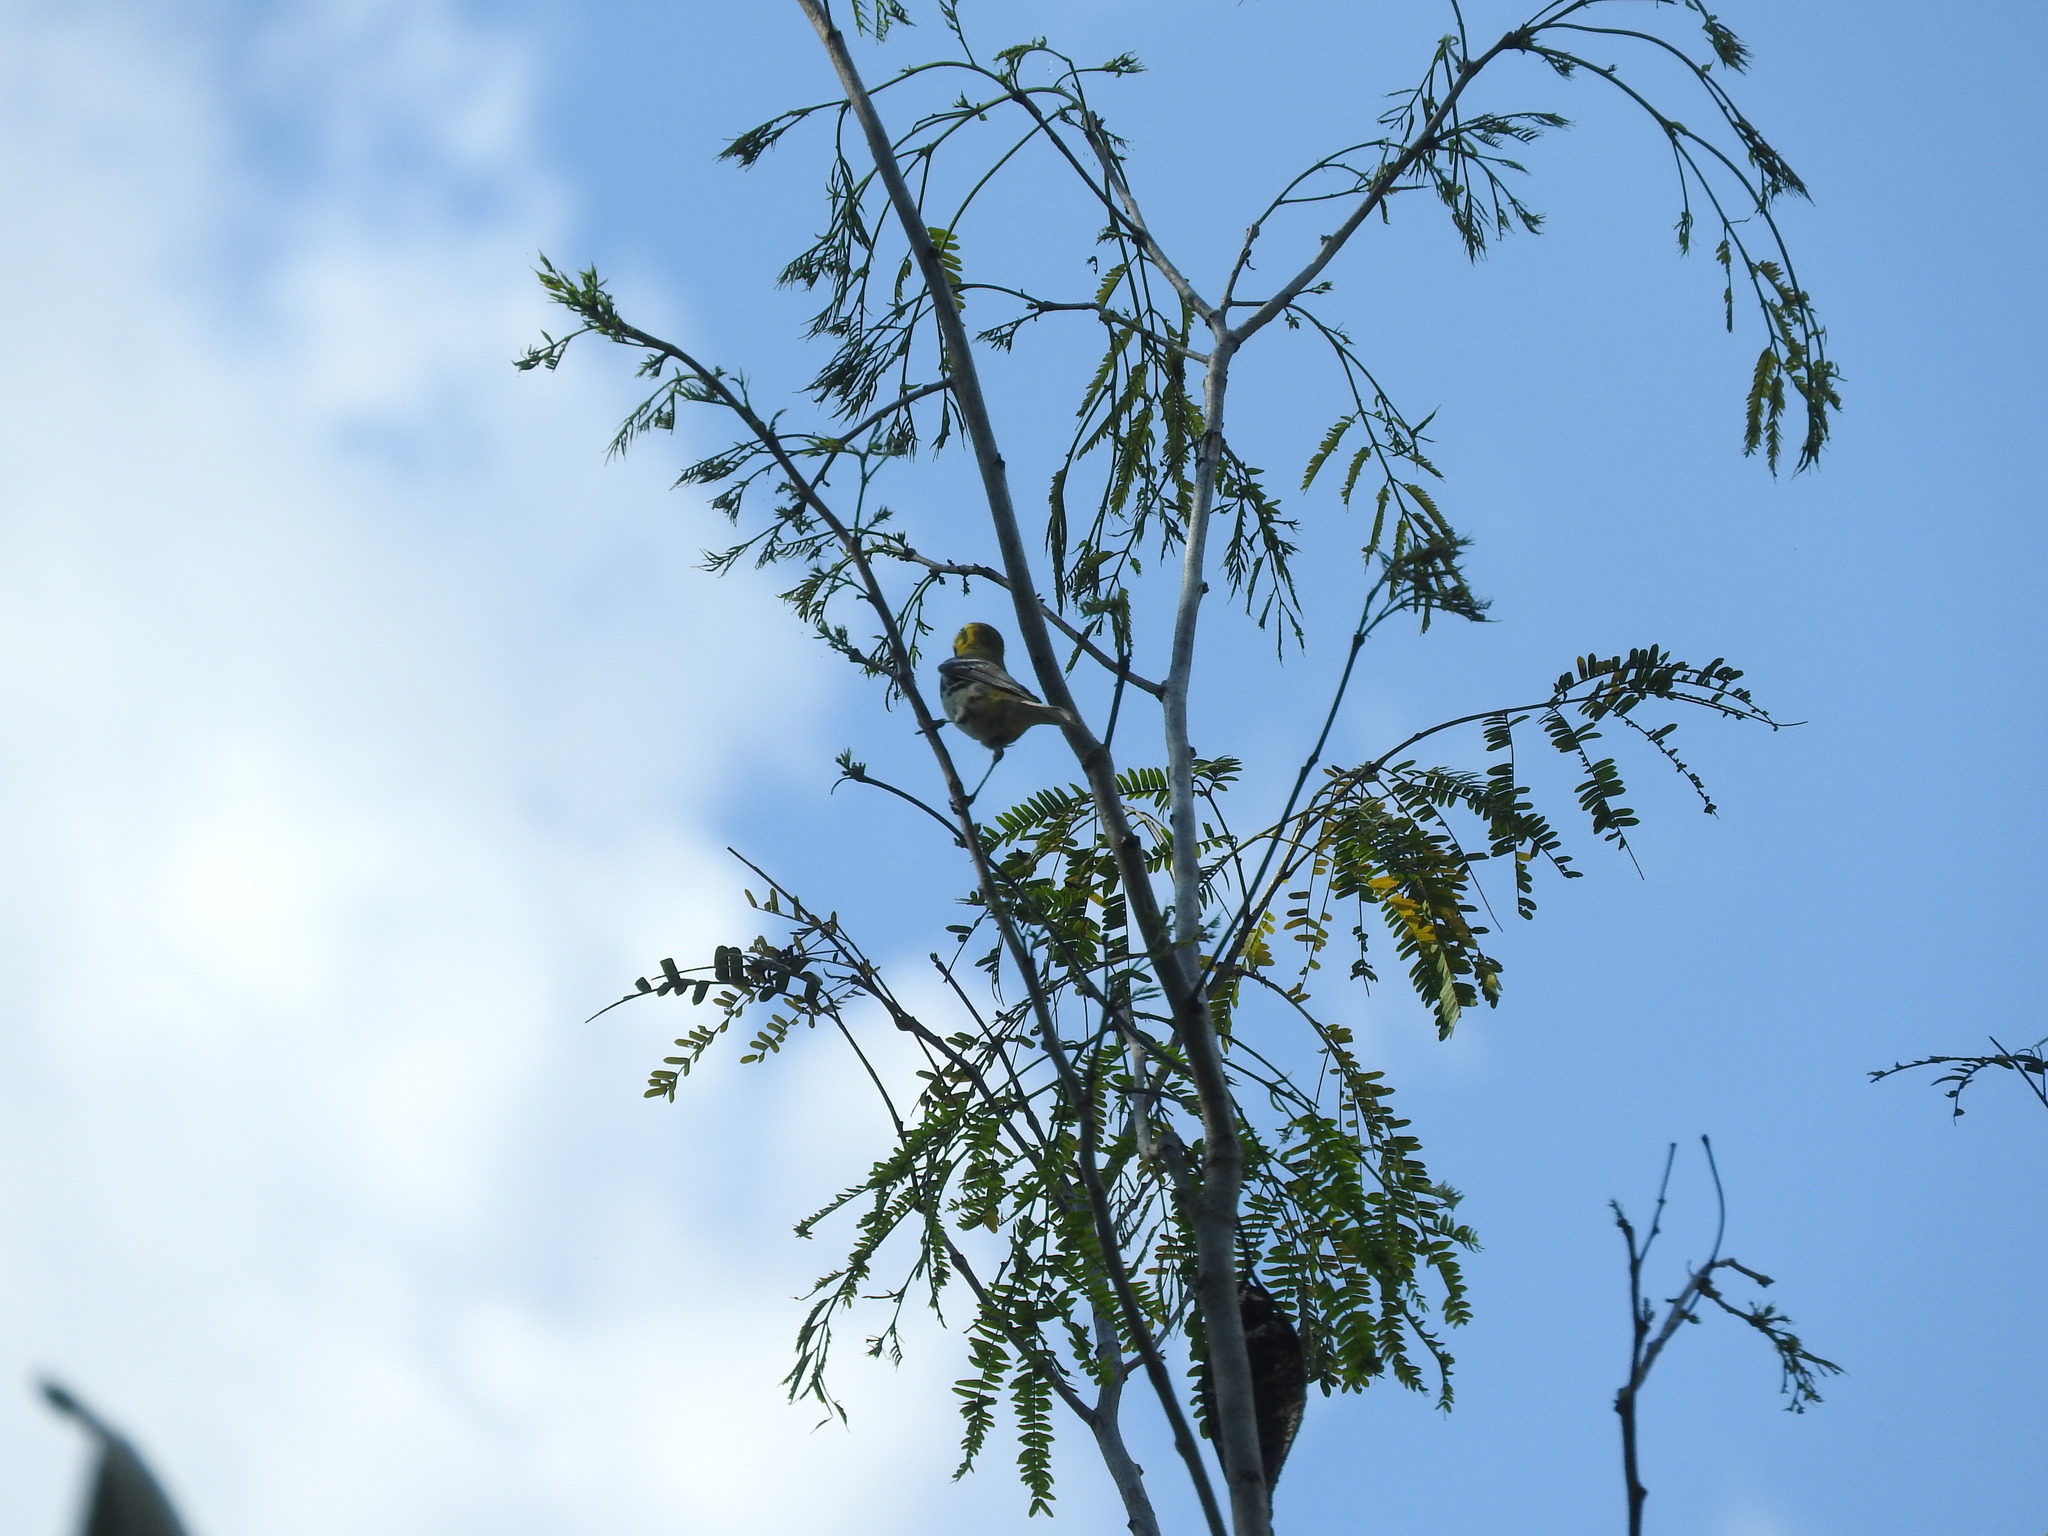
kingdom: Animalia
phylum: Chordata
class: Aves
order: Passeriformes
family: Parulidae
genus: Setophaga
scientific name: Setophaga virens
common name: Black-throated green warbler
